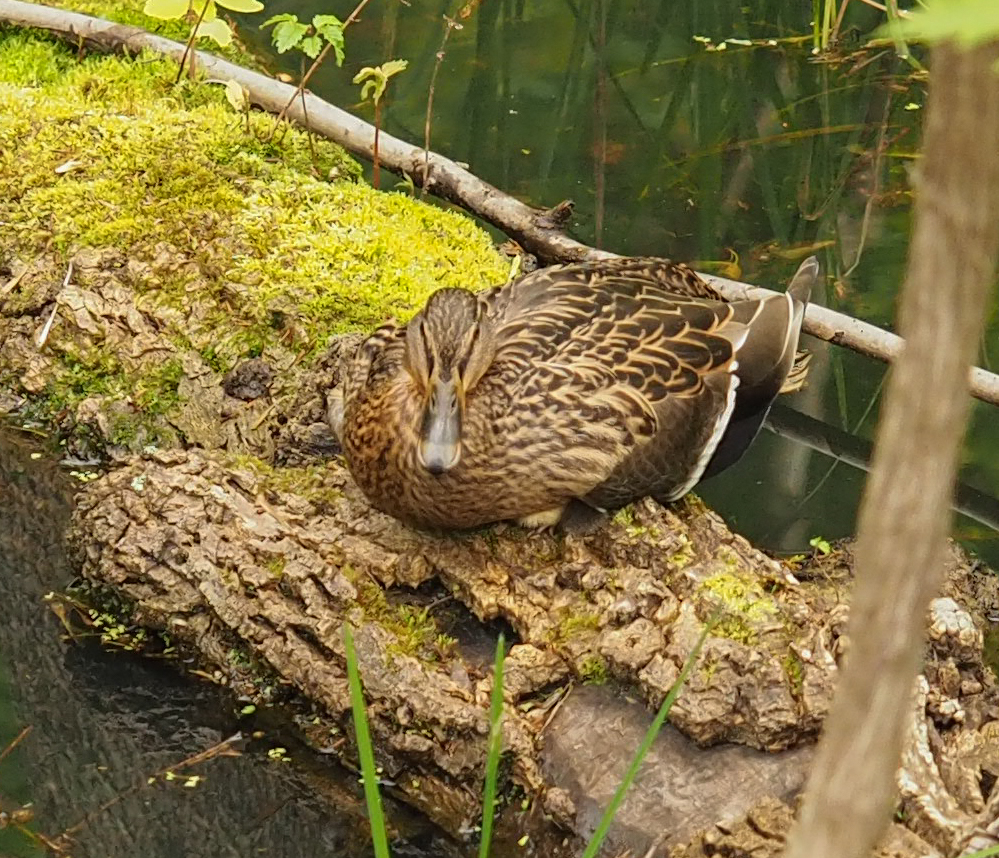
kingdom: Animalia
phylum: Chordata
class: Aves
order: Anseriformes
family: Anatidae
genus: Anas
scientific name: Anas platyrhynchos
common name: Mallard
